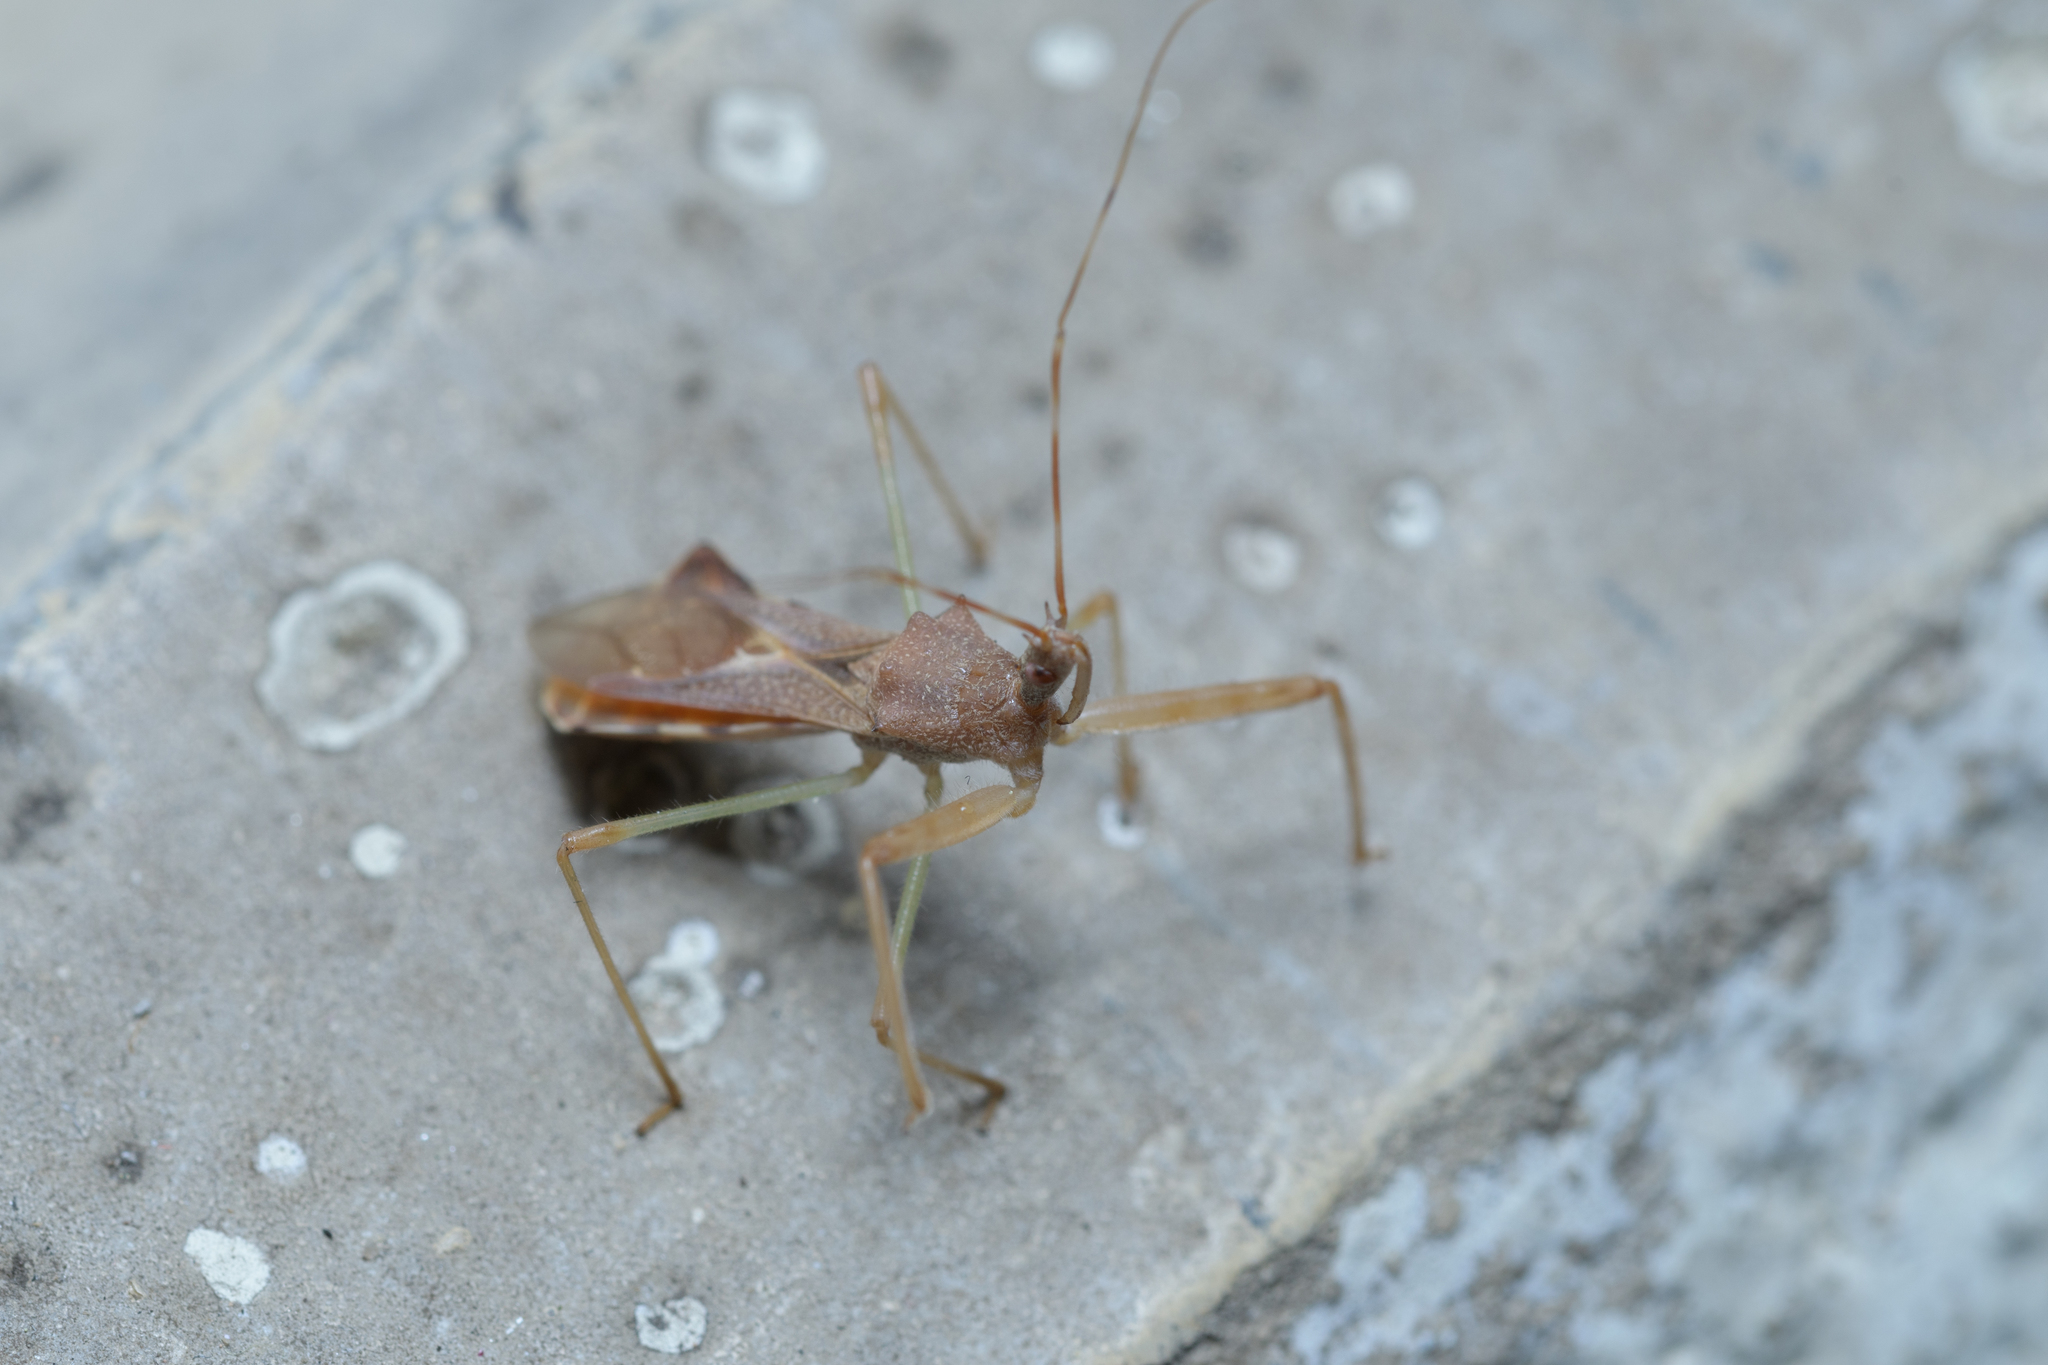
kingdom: Animalia
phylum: Arthropoda
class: Insecta
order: Hemiptera
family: Reduviidae
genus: Nagusta
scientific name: Nagusta goedelii
